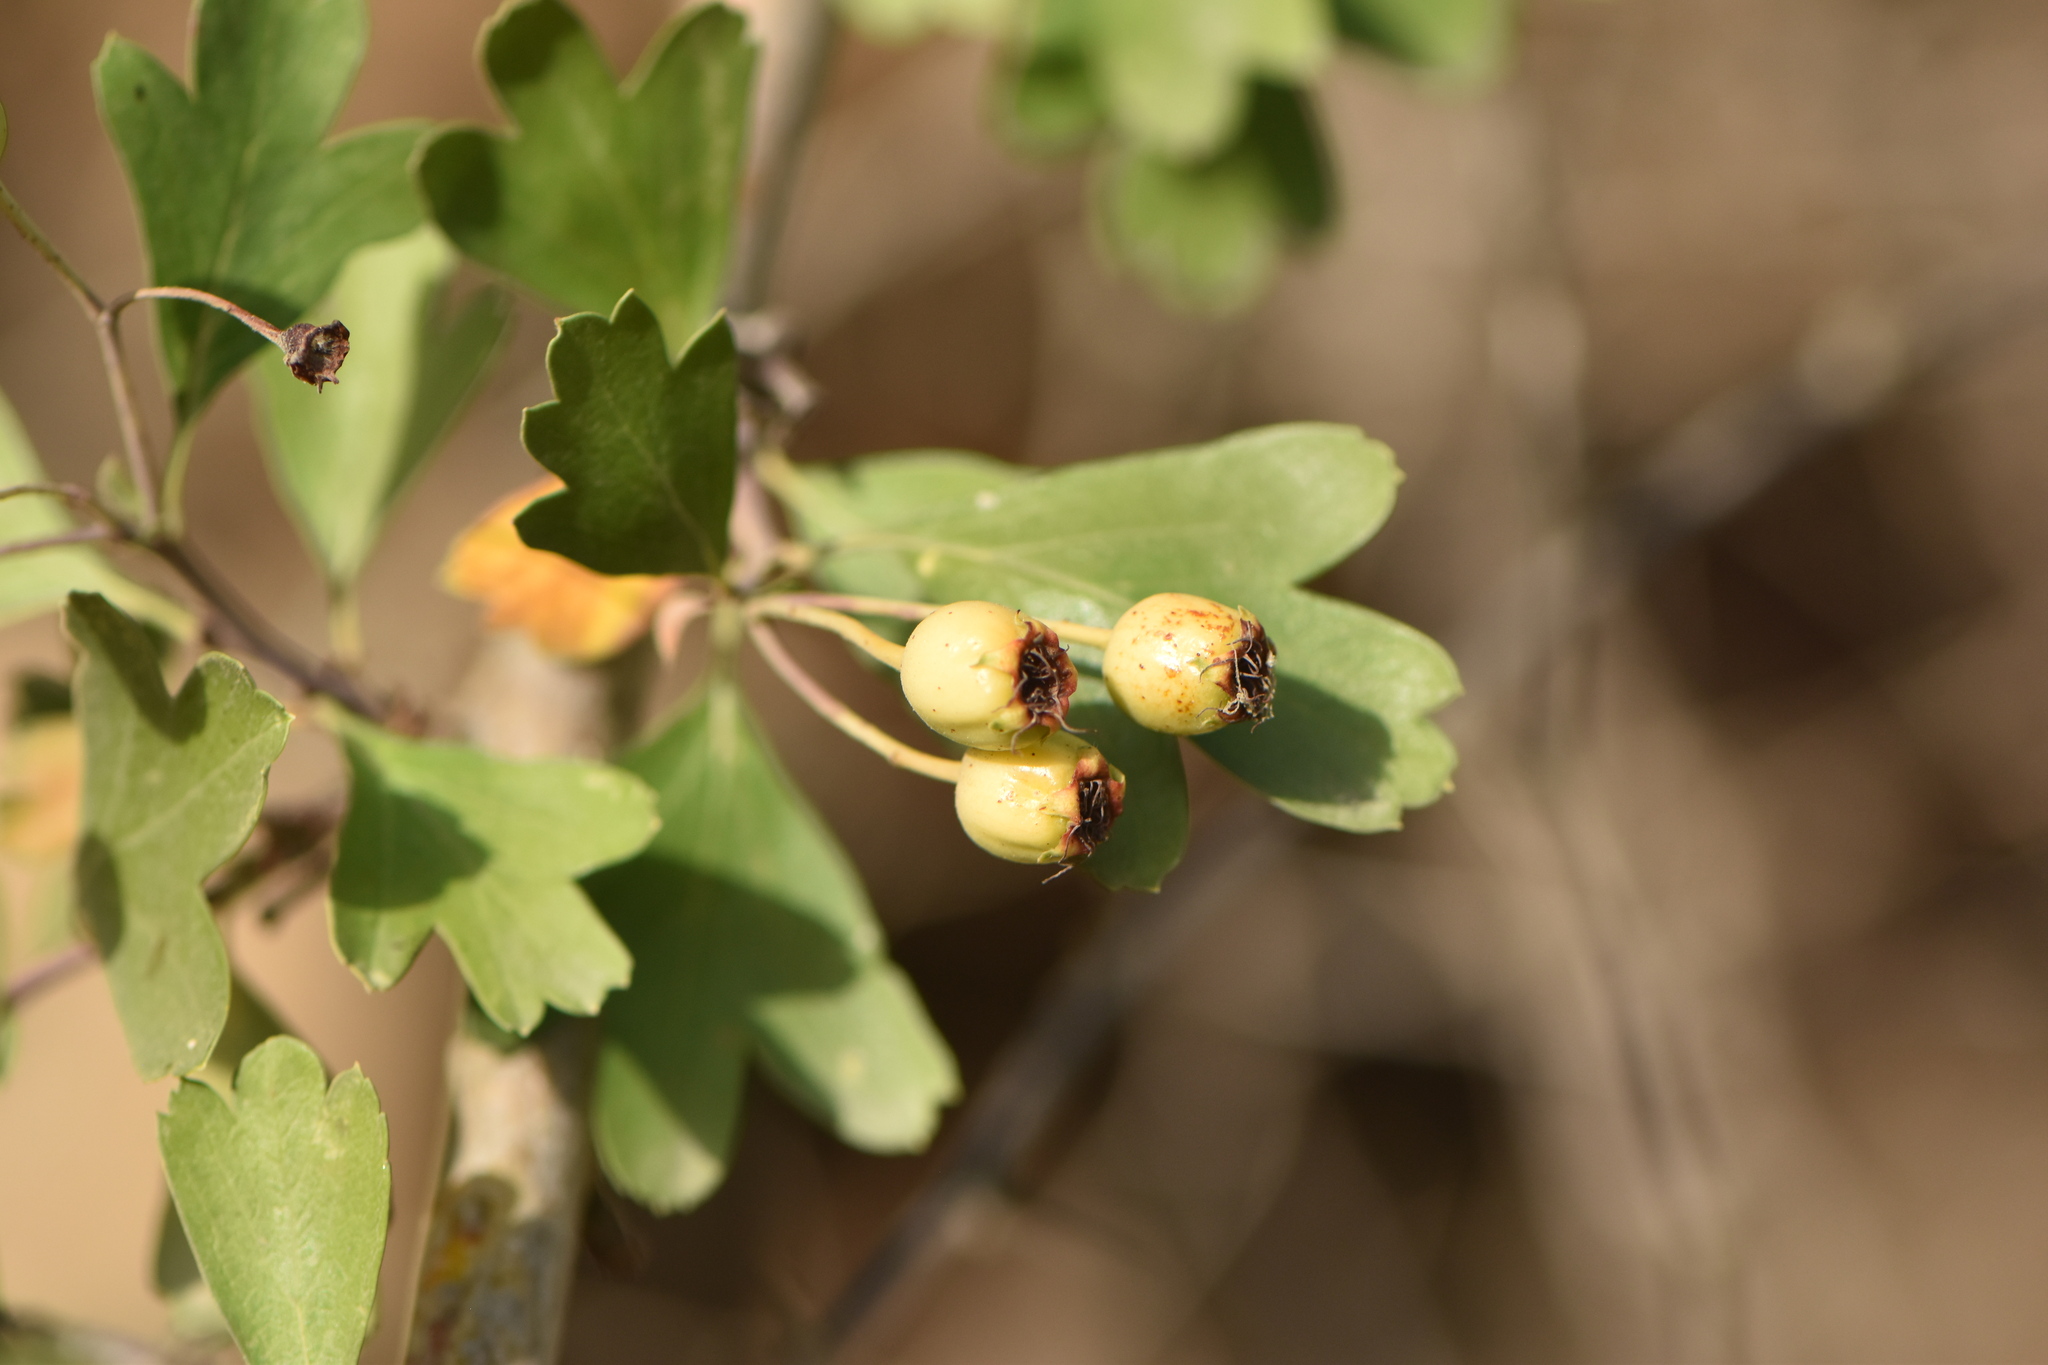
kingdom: Plantae
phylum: Tracheophyta
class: Magnoliopsida
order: Rosales
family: Rosaceae
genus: Crataegus
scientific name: Crataegus monogyna
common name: Hawthorn
